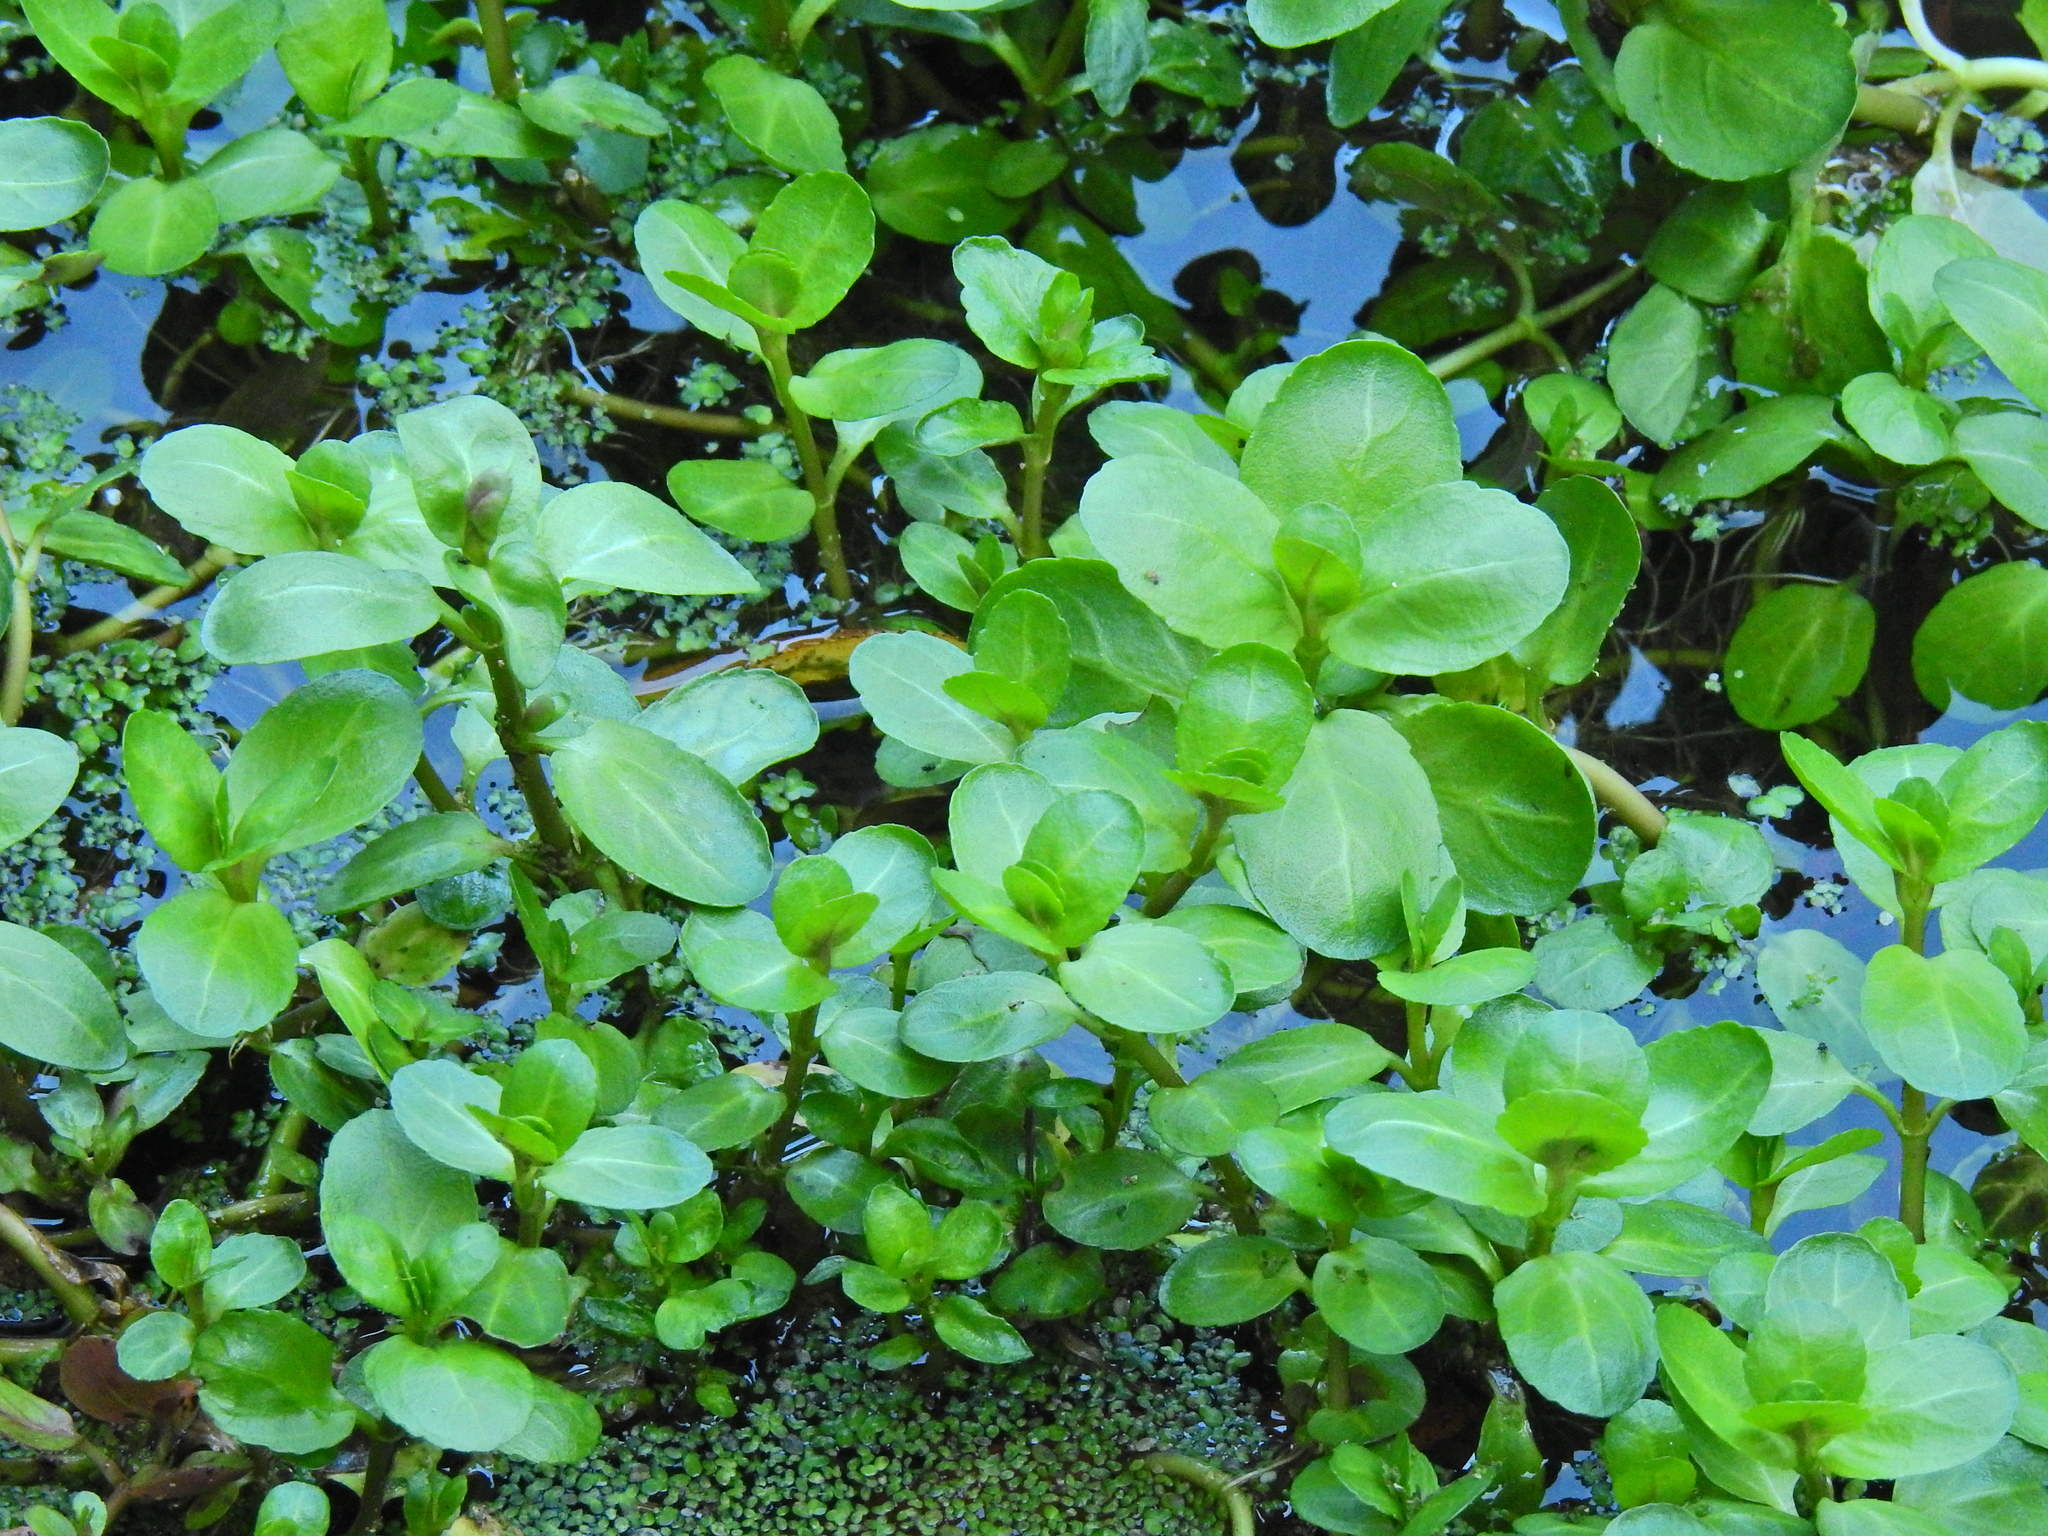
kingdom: Plantae
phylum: Tracheophyta
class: Magnoliopsida
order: Lamiales
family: Plantaginaceae
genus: Veronica
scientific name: Veronica beccabunga
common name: Brooklime
